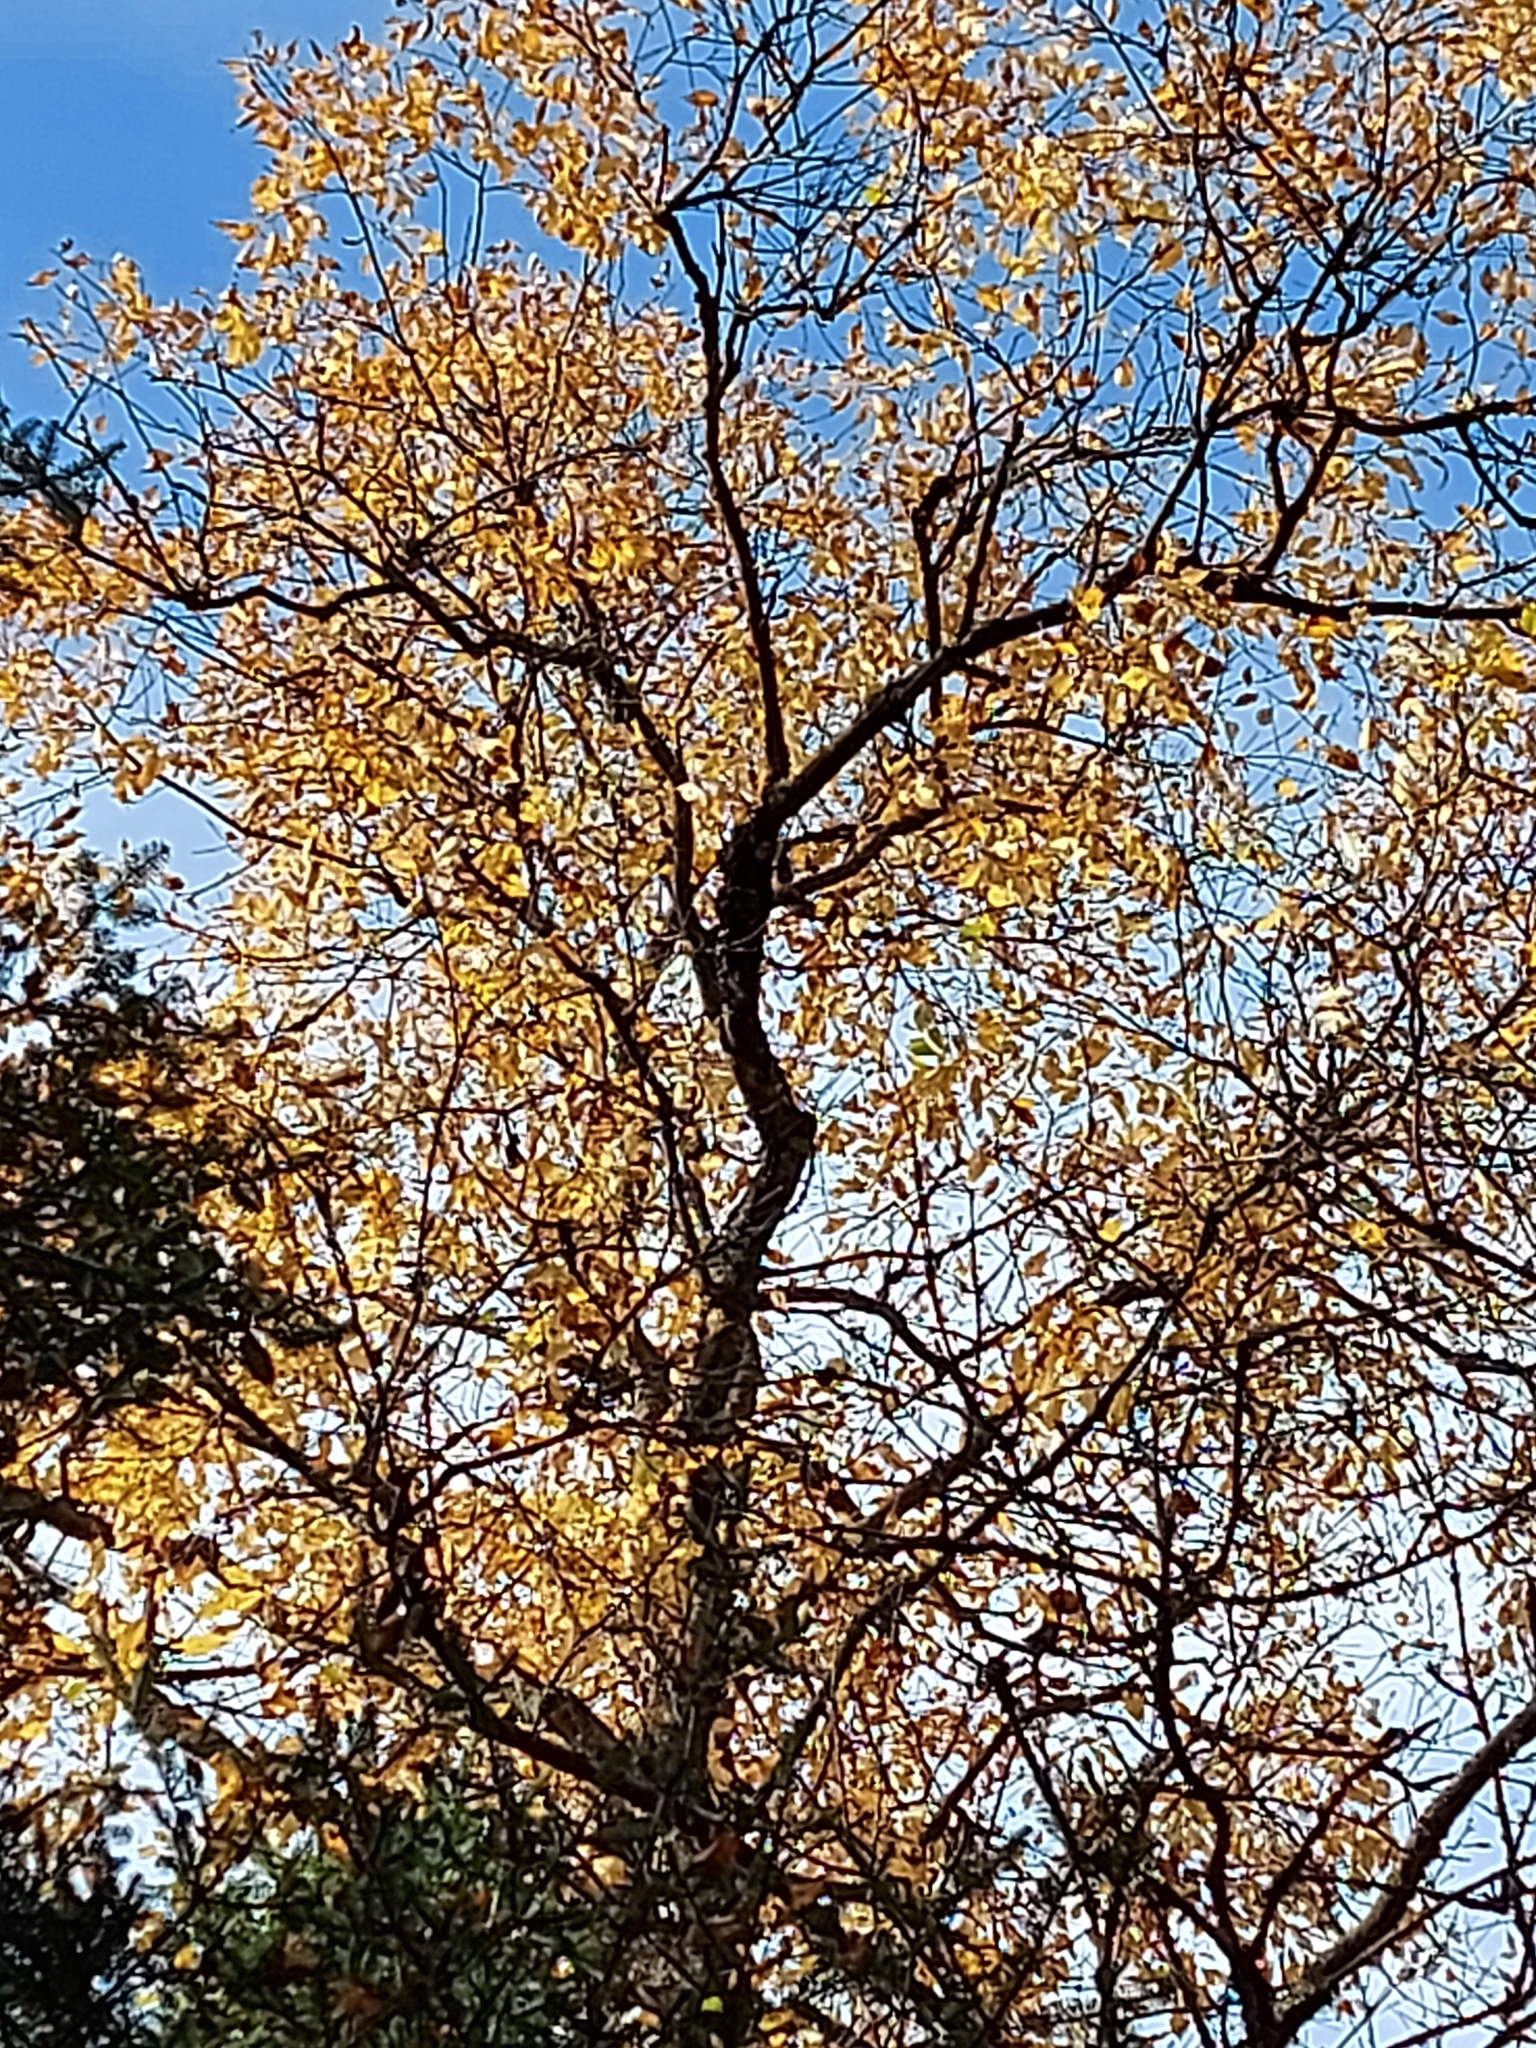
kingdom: Plantae
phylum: Tracheophyta
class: Magnoliopsida
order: Rosales
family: Rosaceae
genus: Prunus
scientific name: Prunus serotina
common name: Black cherry
